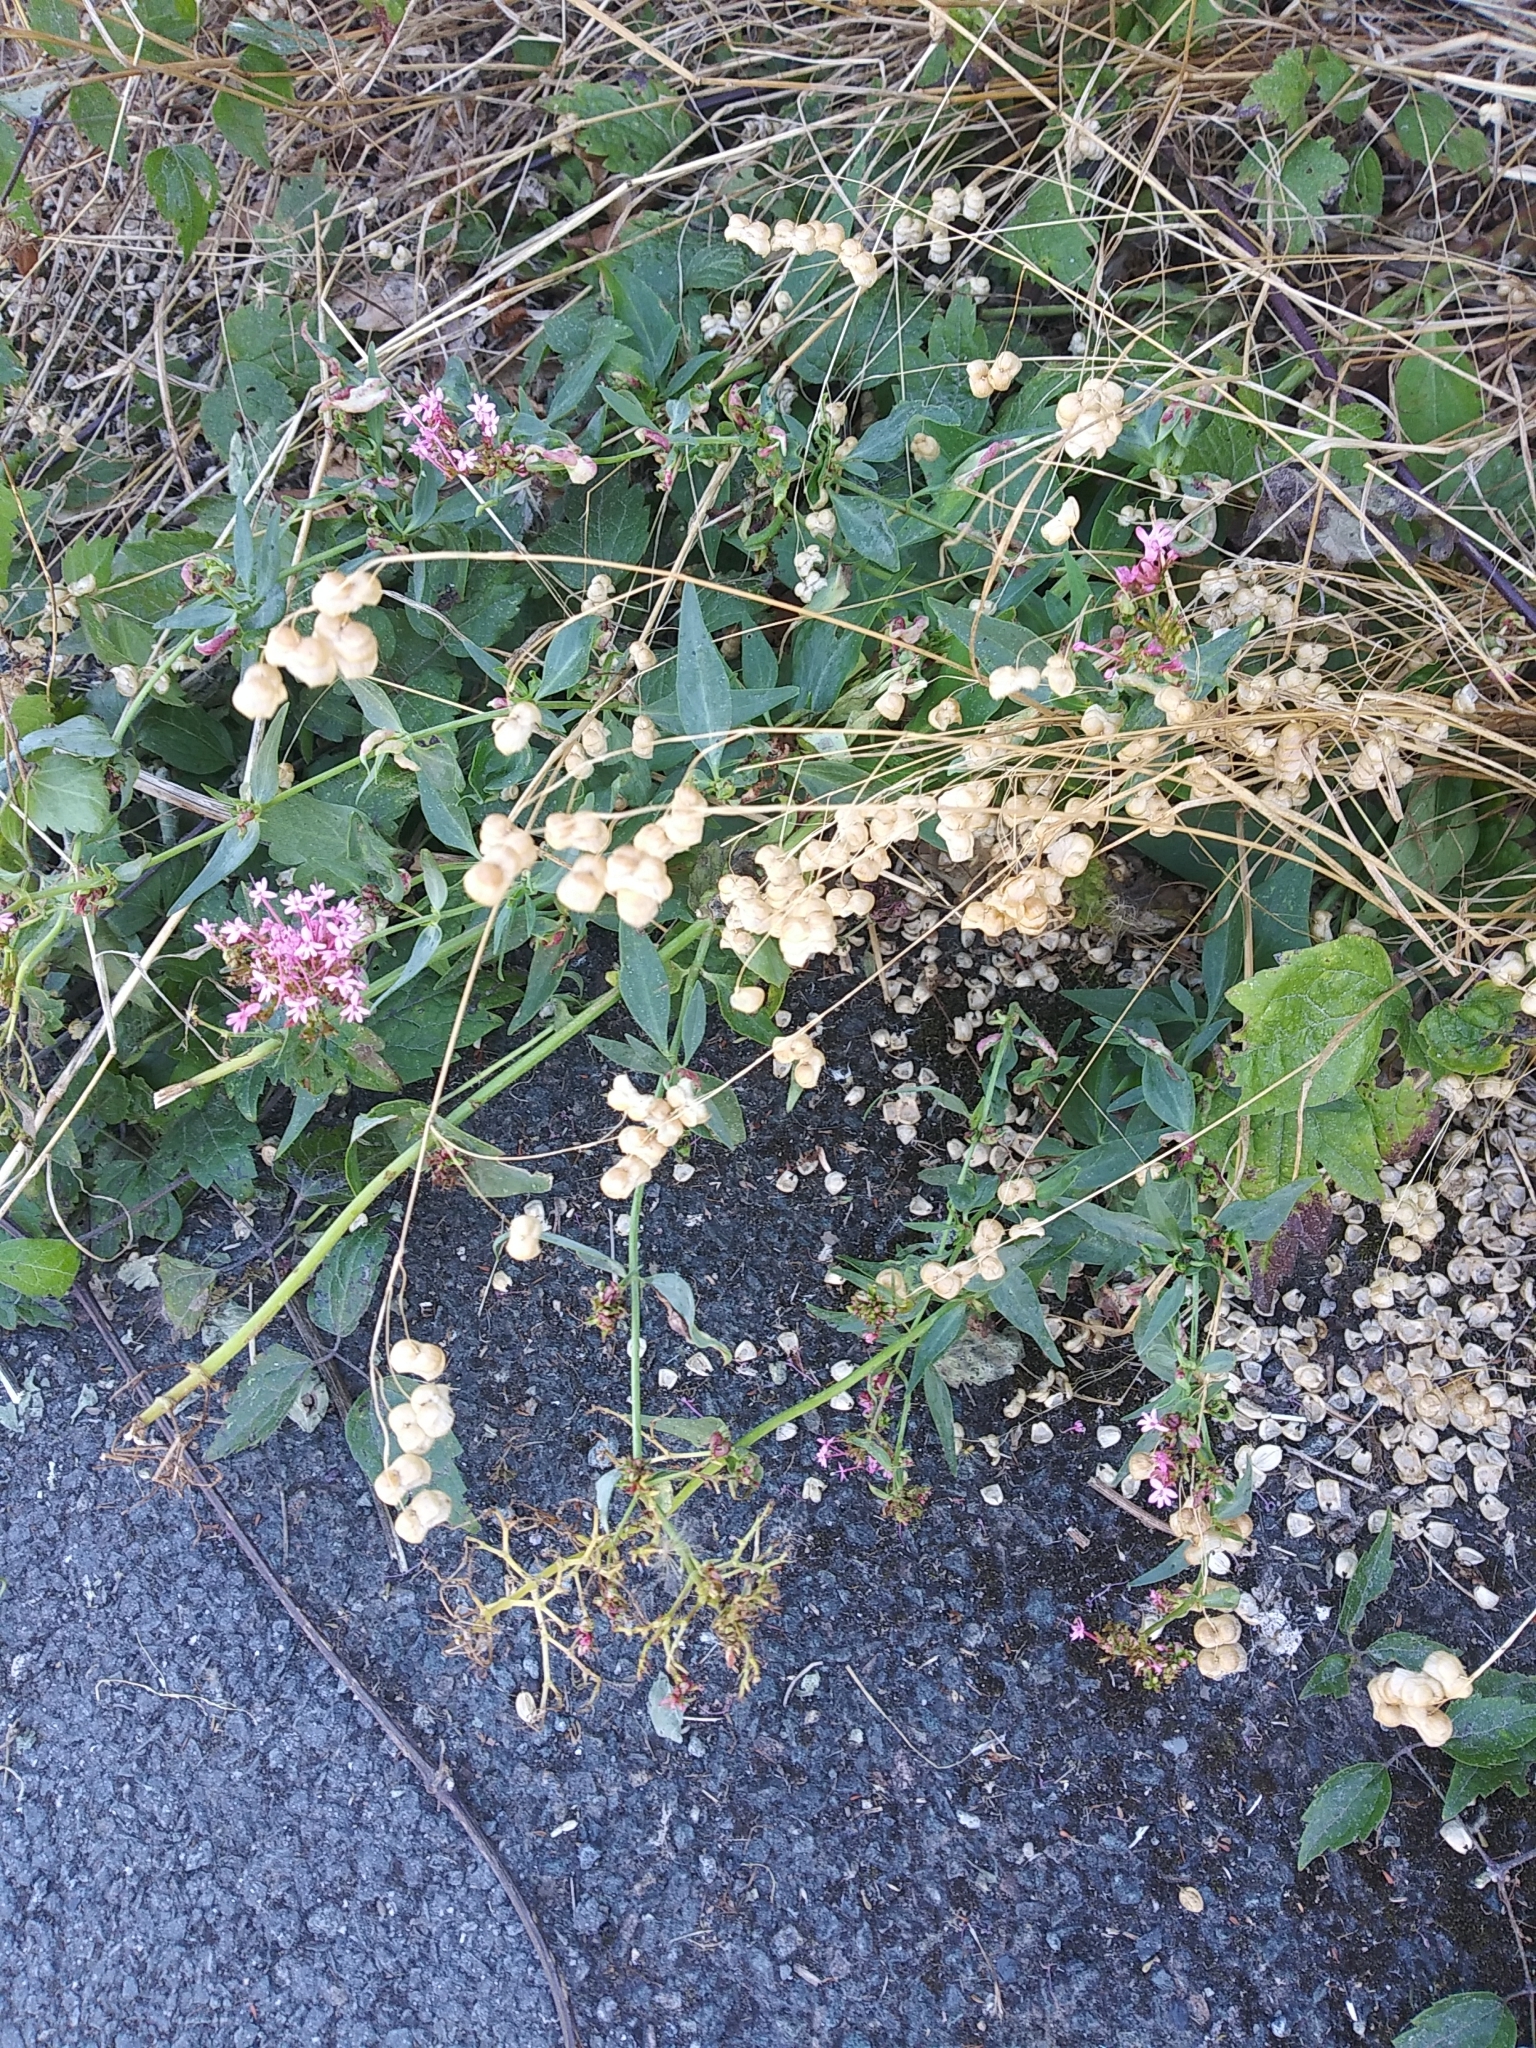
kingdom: Plantae
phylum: Tracheophyta
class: Magnoliopsida
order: Dipsacales
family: Caprifoliaceae
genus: Centranthus
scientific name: Centranthus ruber
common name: Red valerian
